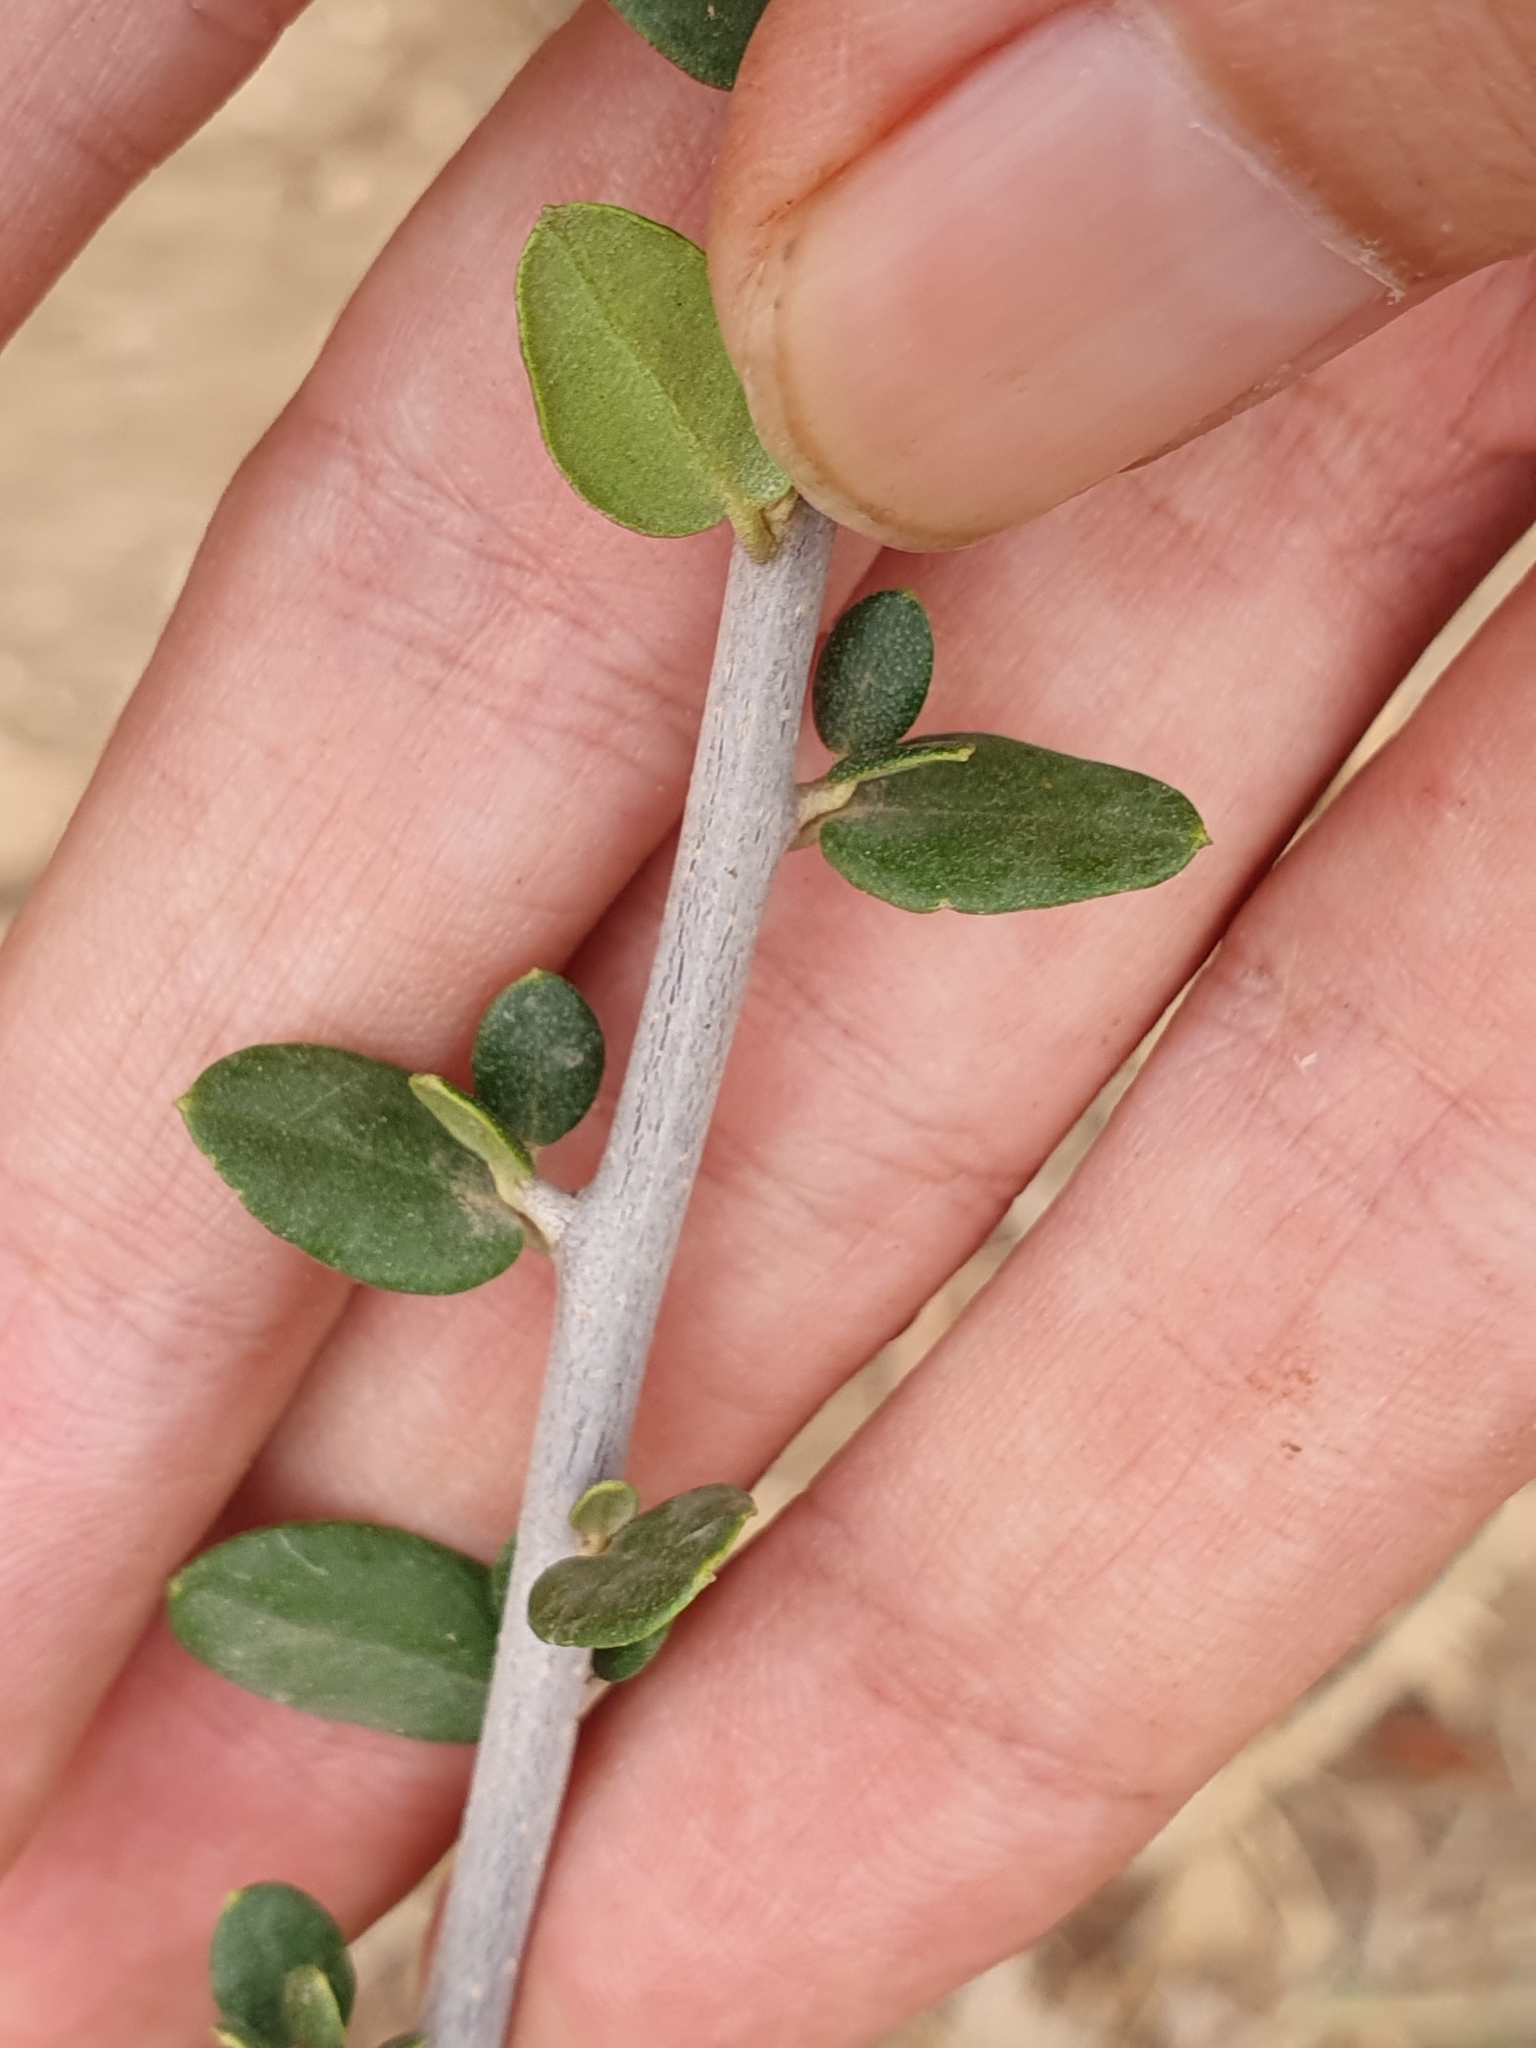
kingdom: Plantae
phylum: Tracheophyta
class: Magnoliopsida
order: Lamiales
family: Oleaceae
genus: Olea
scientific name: Olea europaea
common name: Olive
